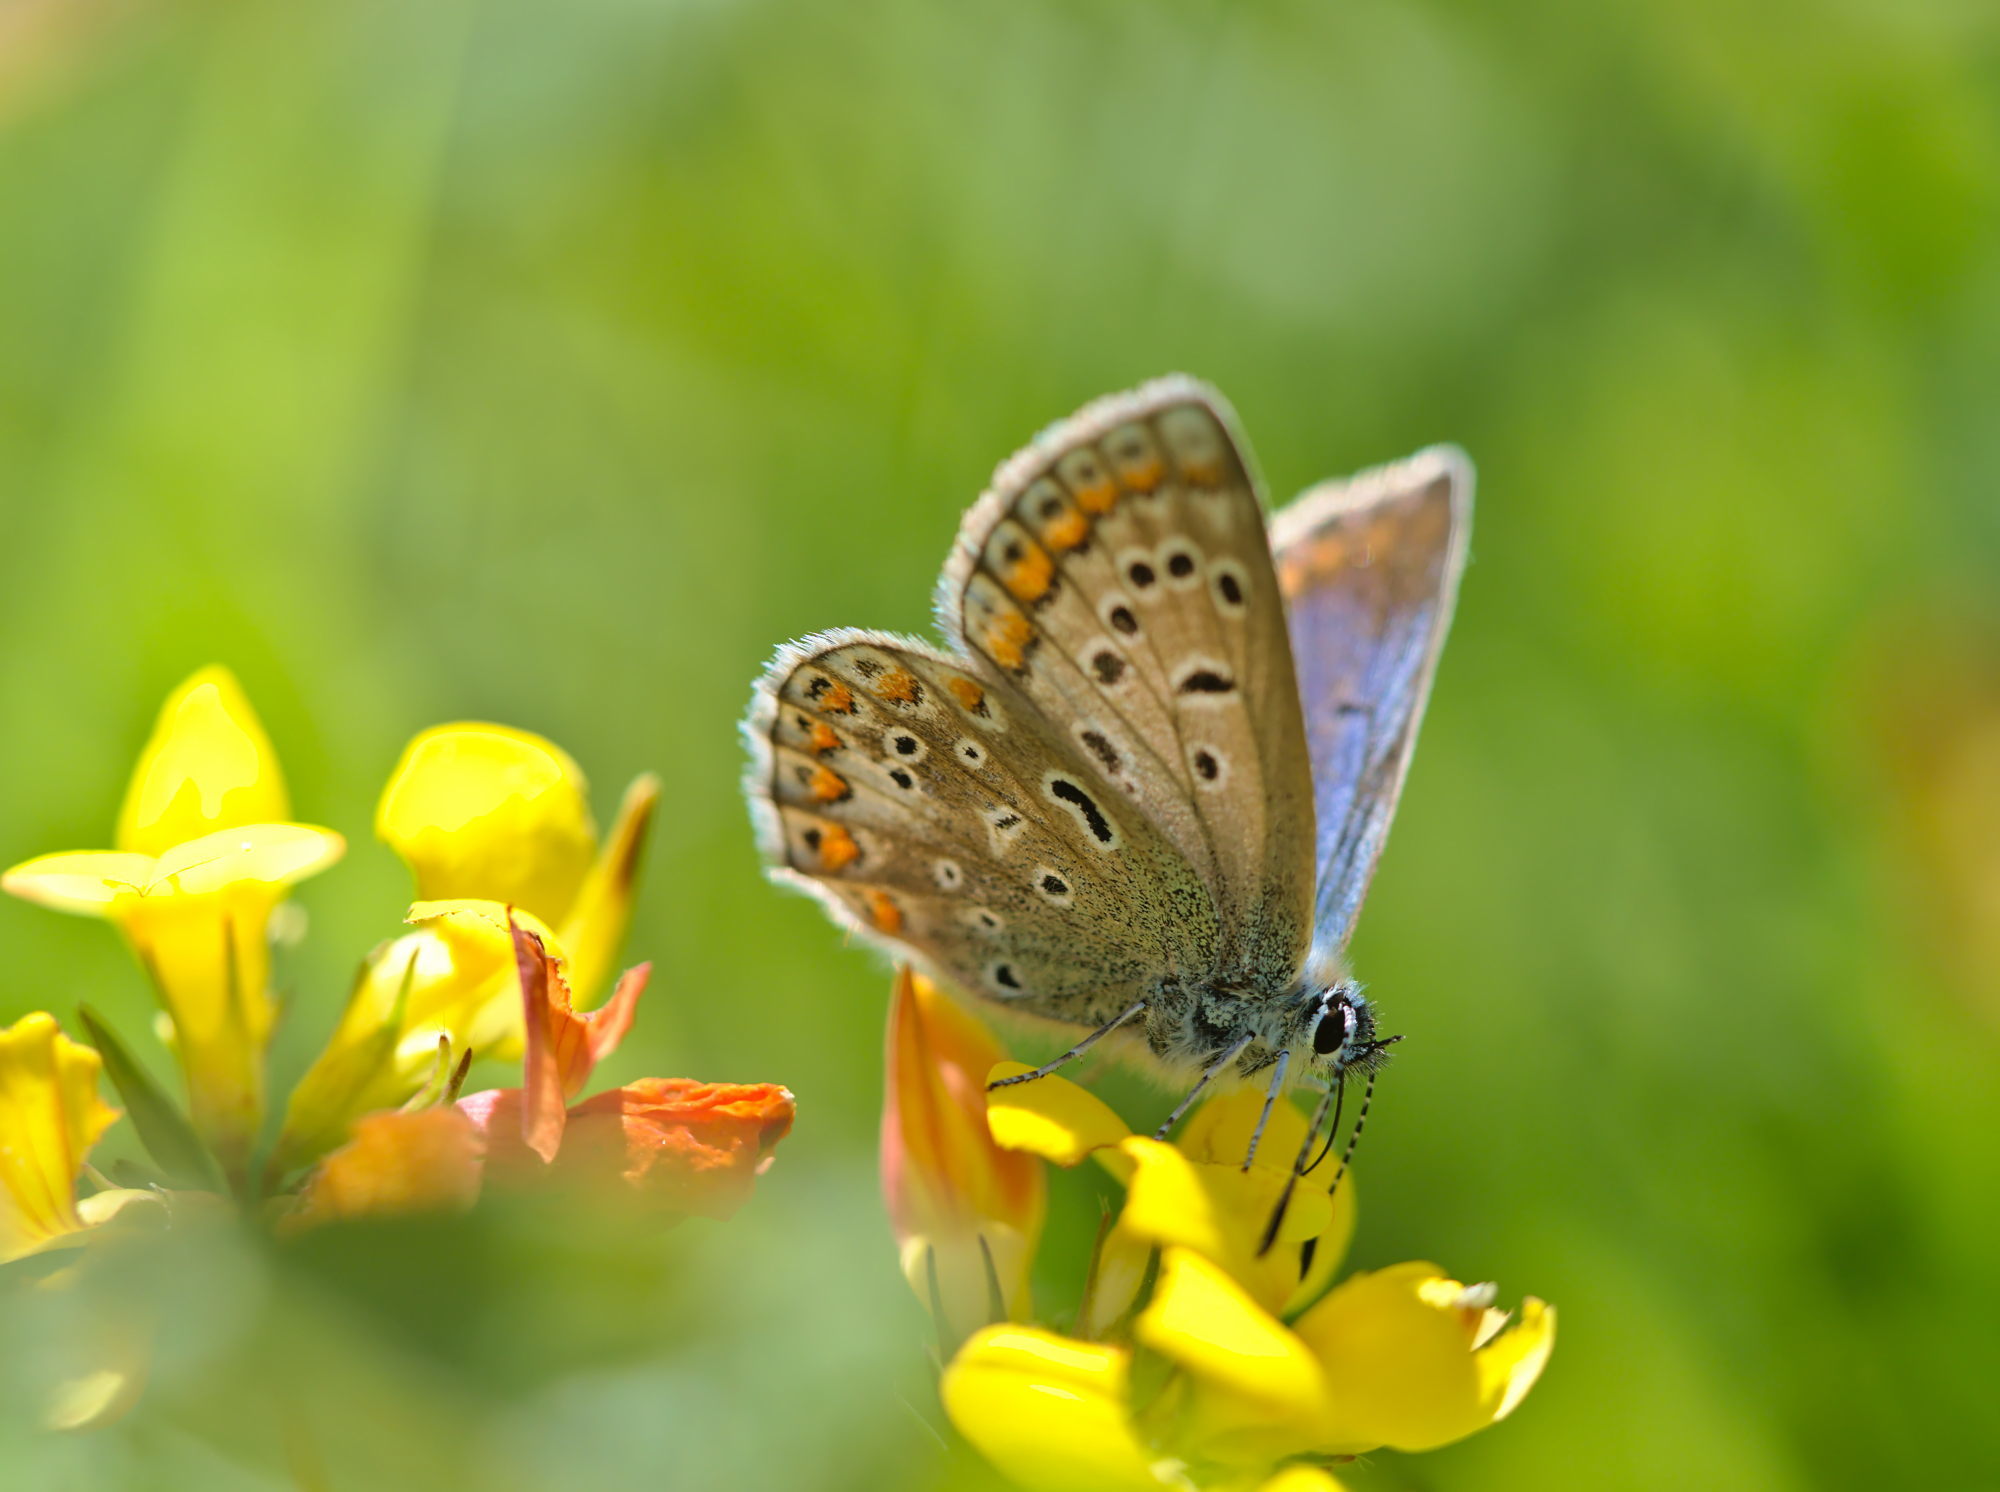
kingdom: Animalia
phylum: Arthropoda
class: Insecta
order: Lepidoptera
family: Lycaenidae
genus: Polyommatus
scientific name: Polyommatus icarus
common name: Common blue
